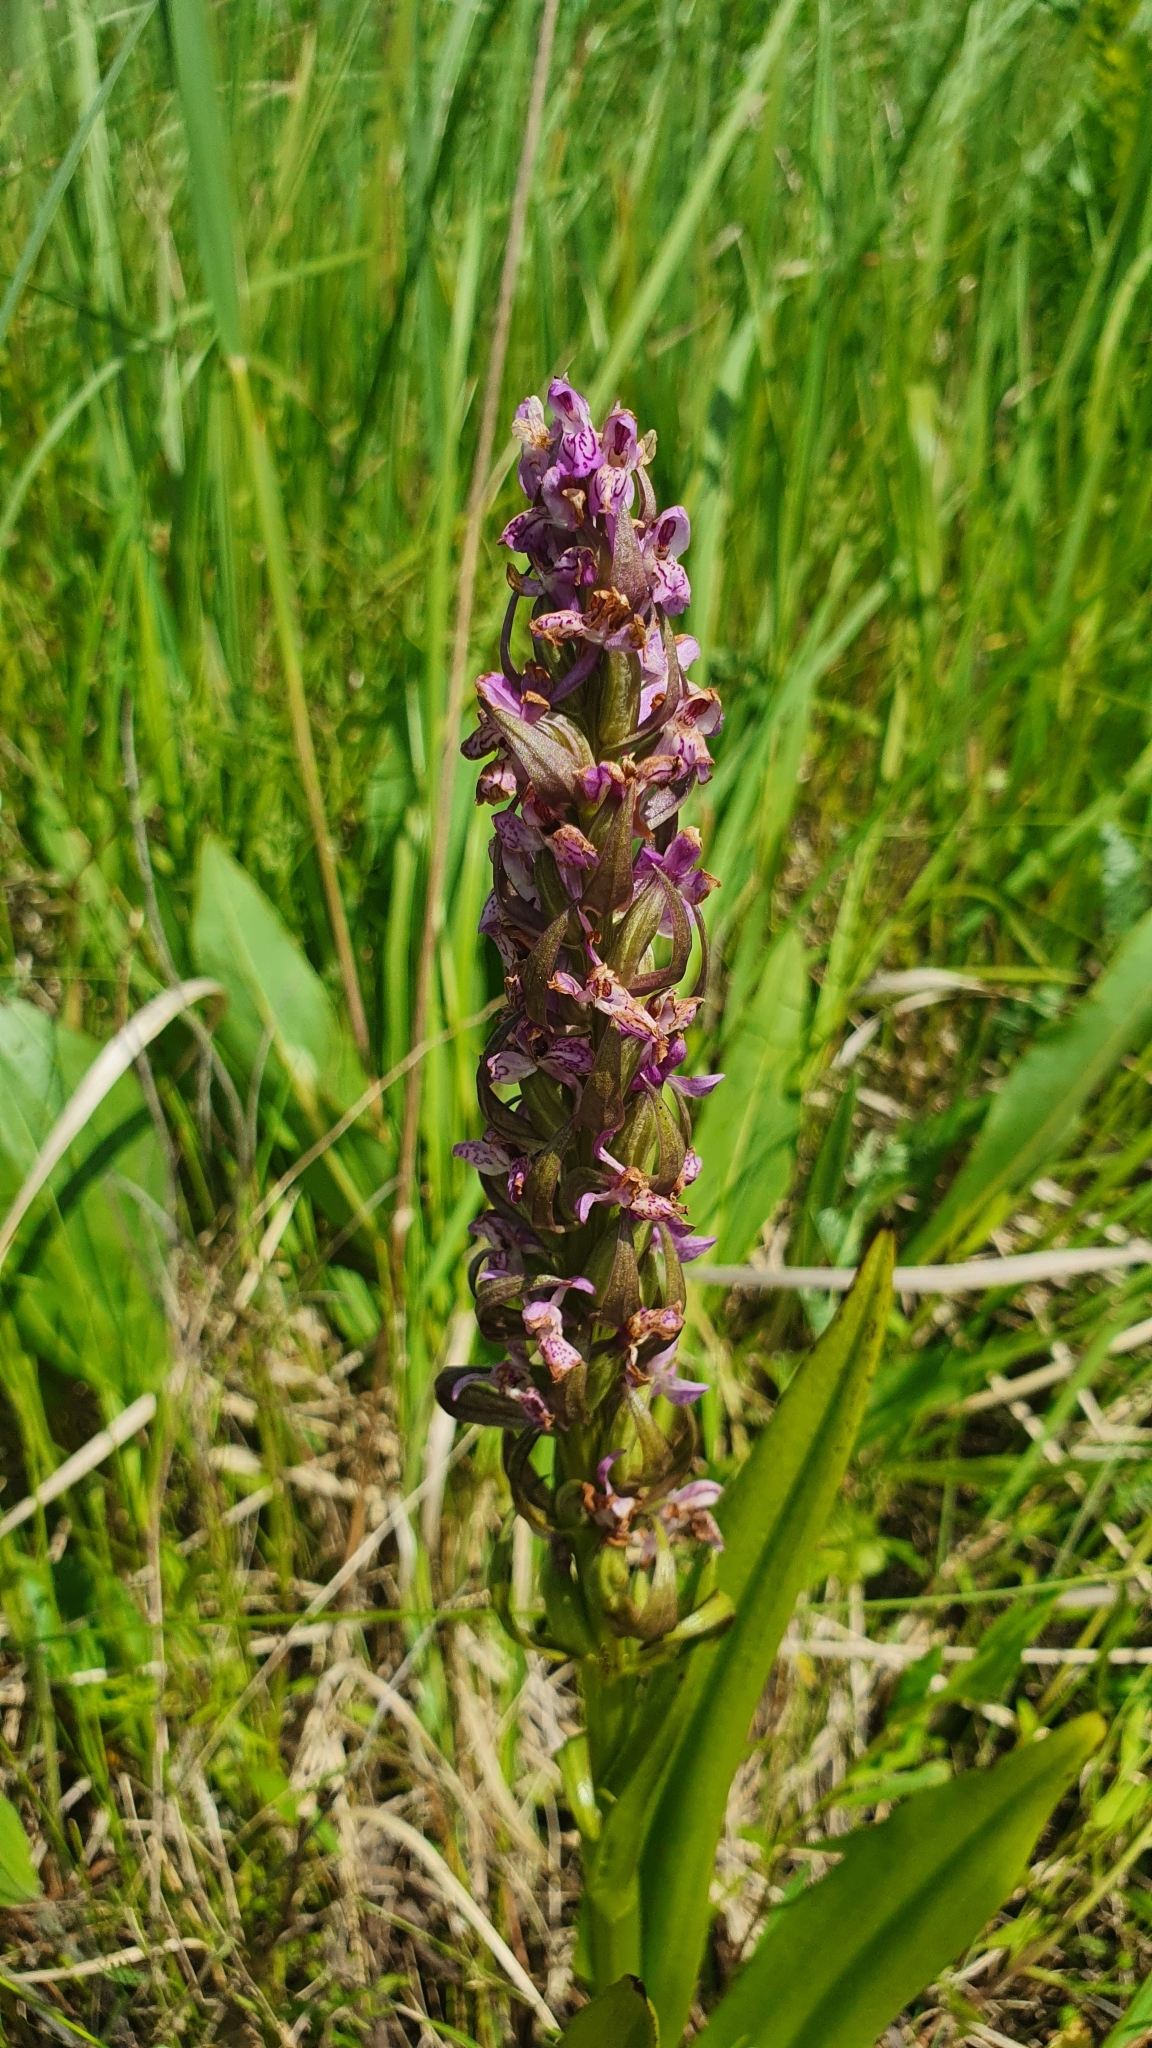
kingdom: Plantae
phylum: Tracheophyta
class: Liliopsida
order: Asparagales
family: Orchidaceae
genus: Dactylorhiza
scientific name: Dactylorhiza incarnata
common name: Early marsh-orchid
